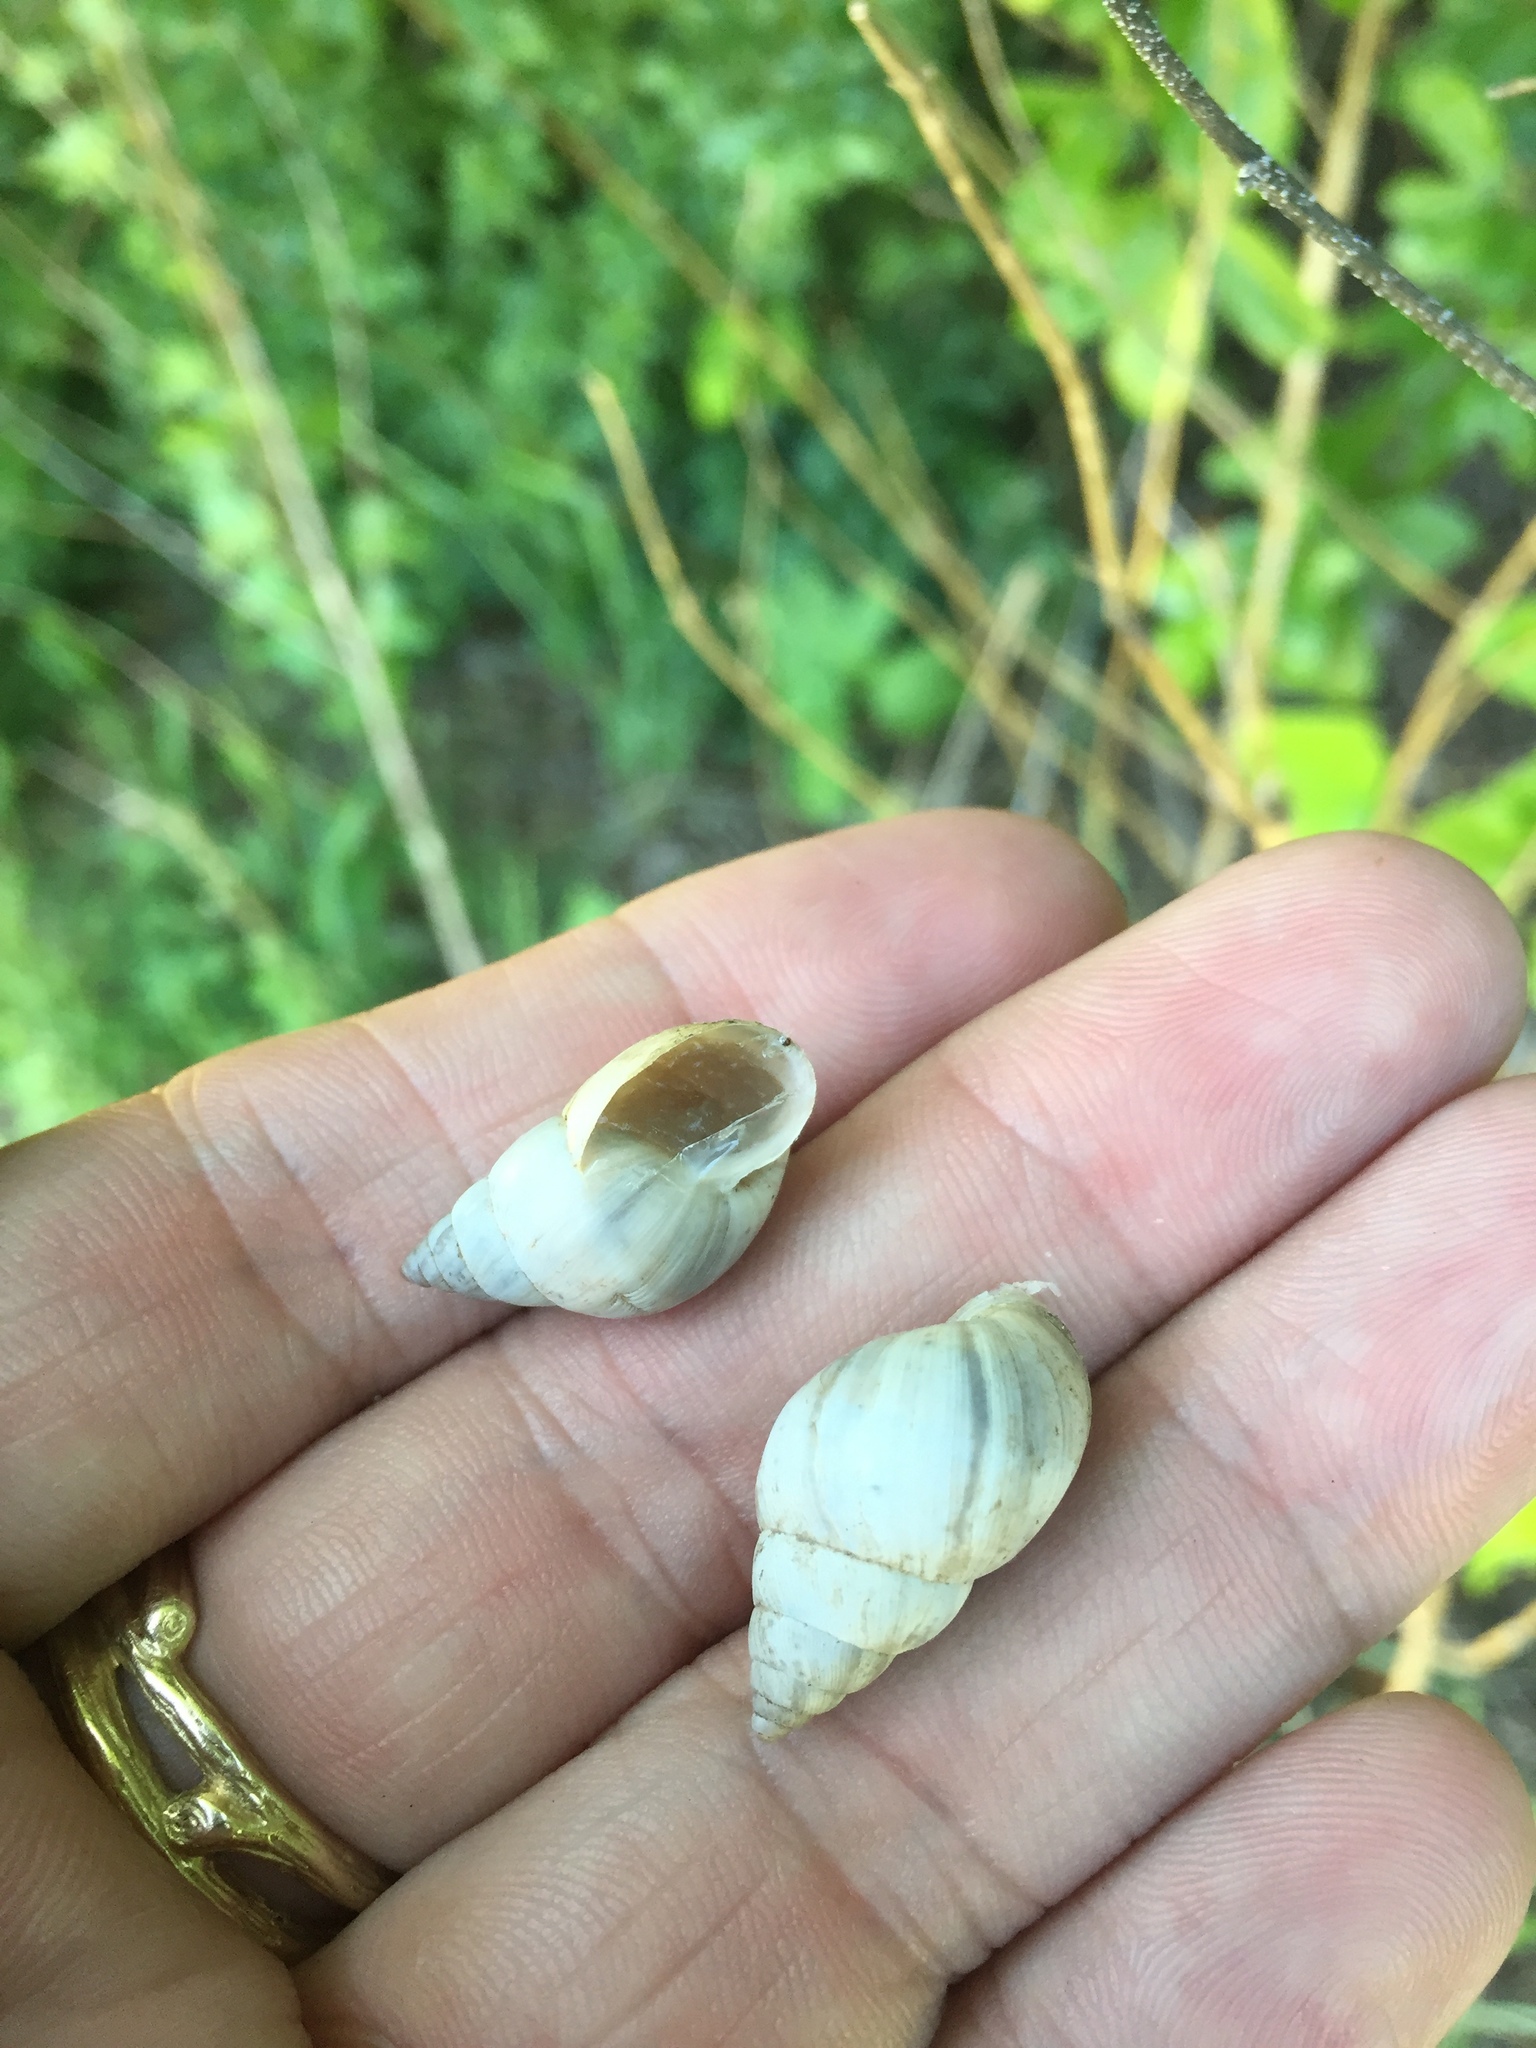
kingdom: Animalia
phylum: Mollusca
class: Gastropoda
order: Stylommatophora
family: Bulimulidae
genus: Rabdotus
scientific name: Rabdotus mooreanus
